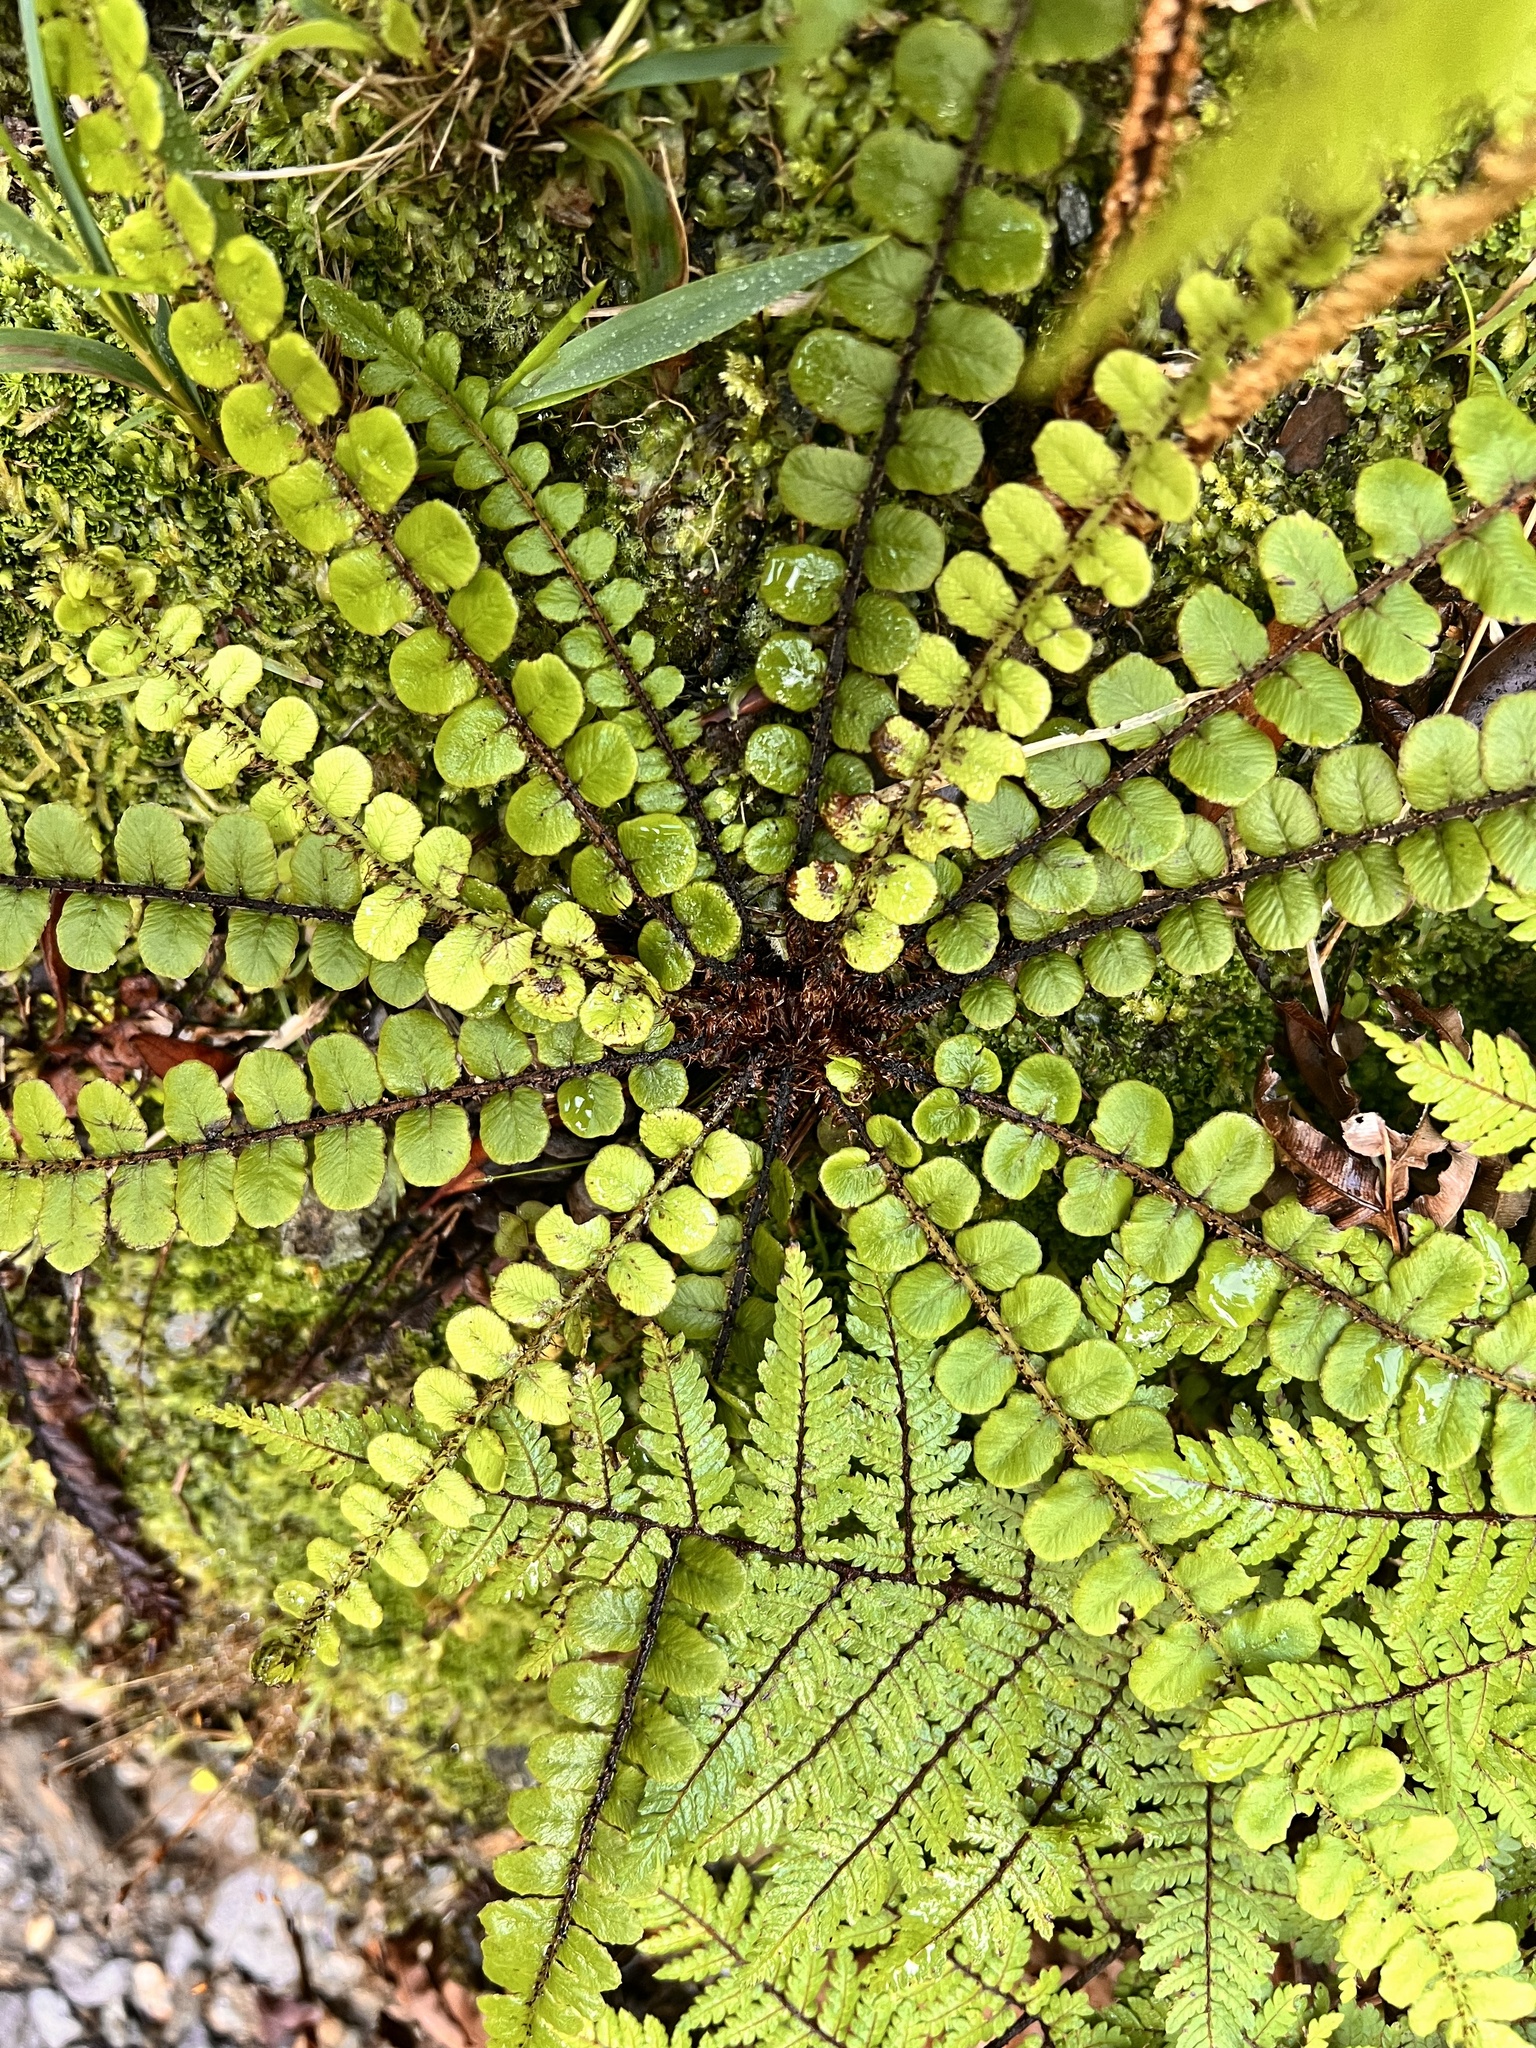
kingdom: Plantae
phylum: Tracheophyta
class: Polypodiopsida
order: Polypodiales
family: Blechnaceae
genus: Cranfillia
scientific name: Cranfillia fluviatilis
